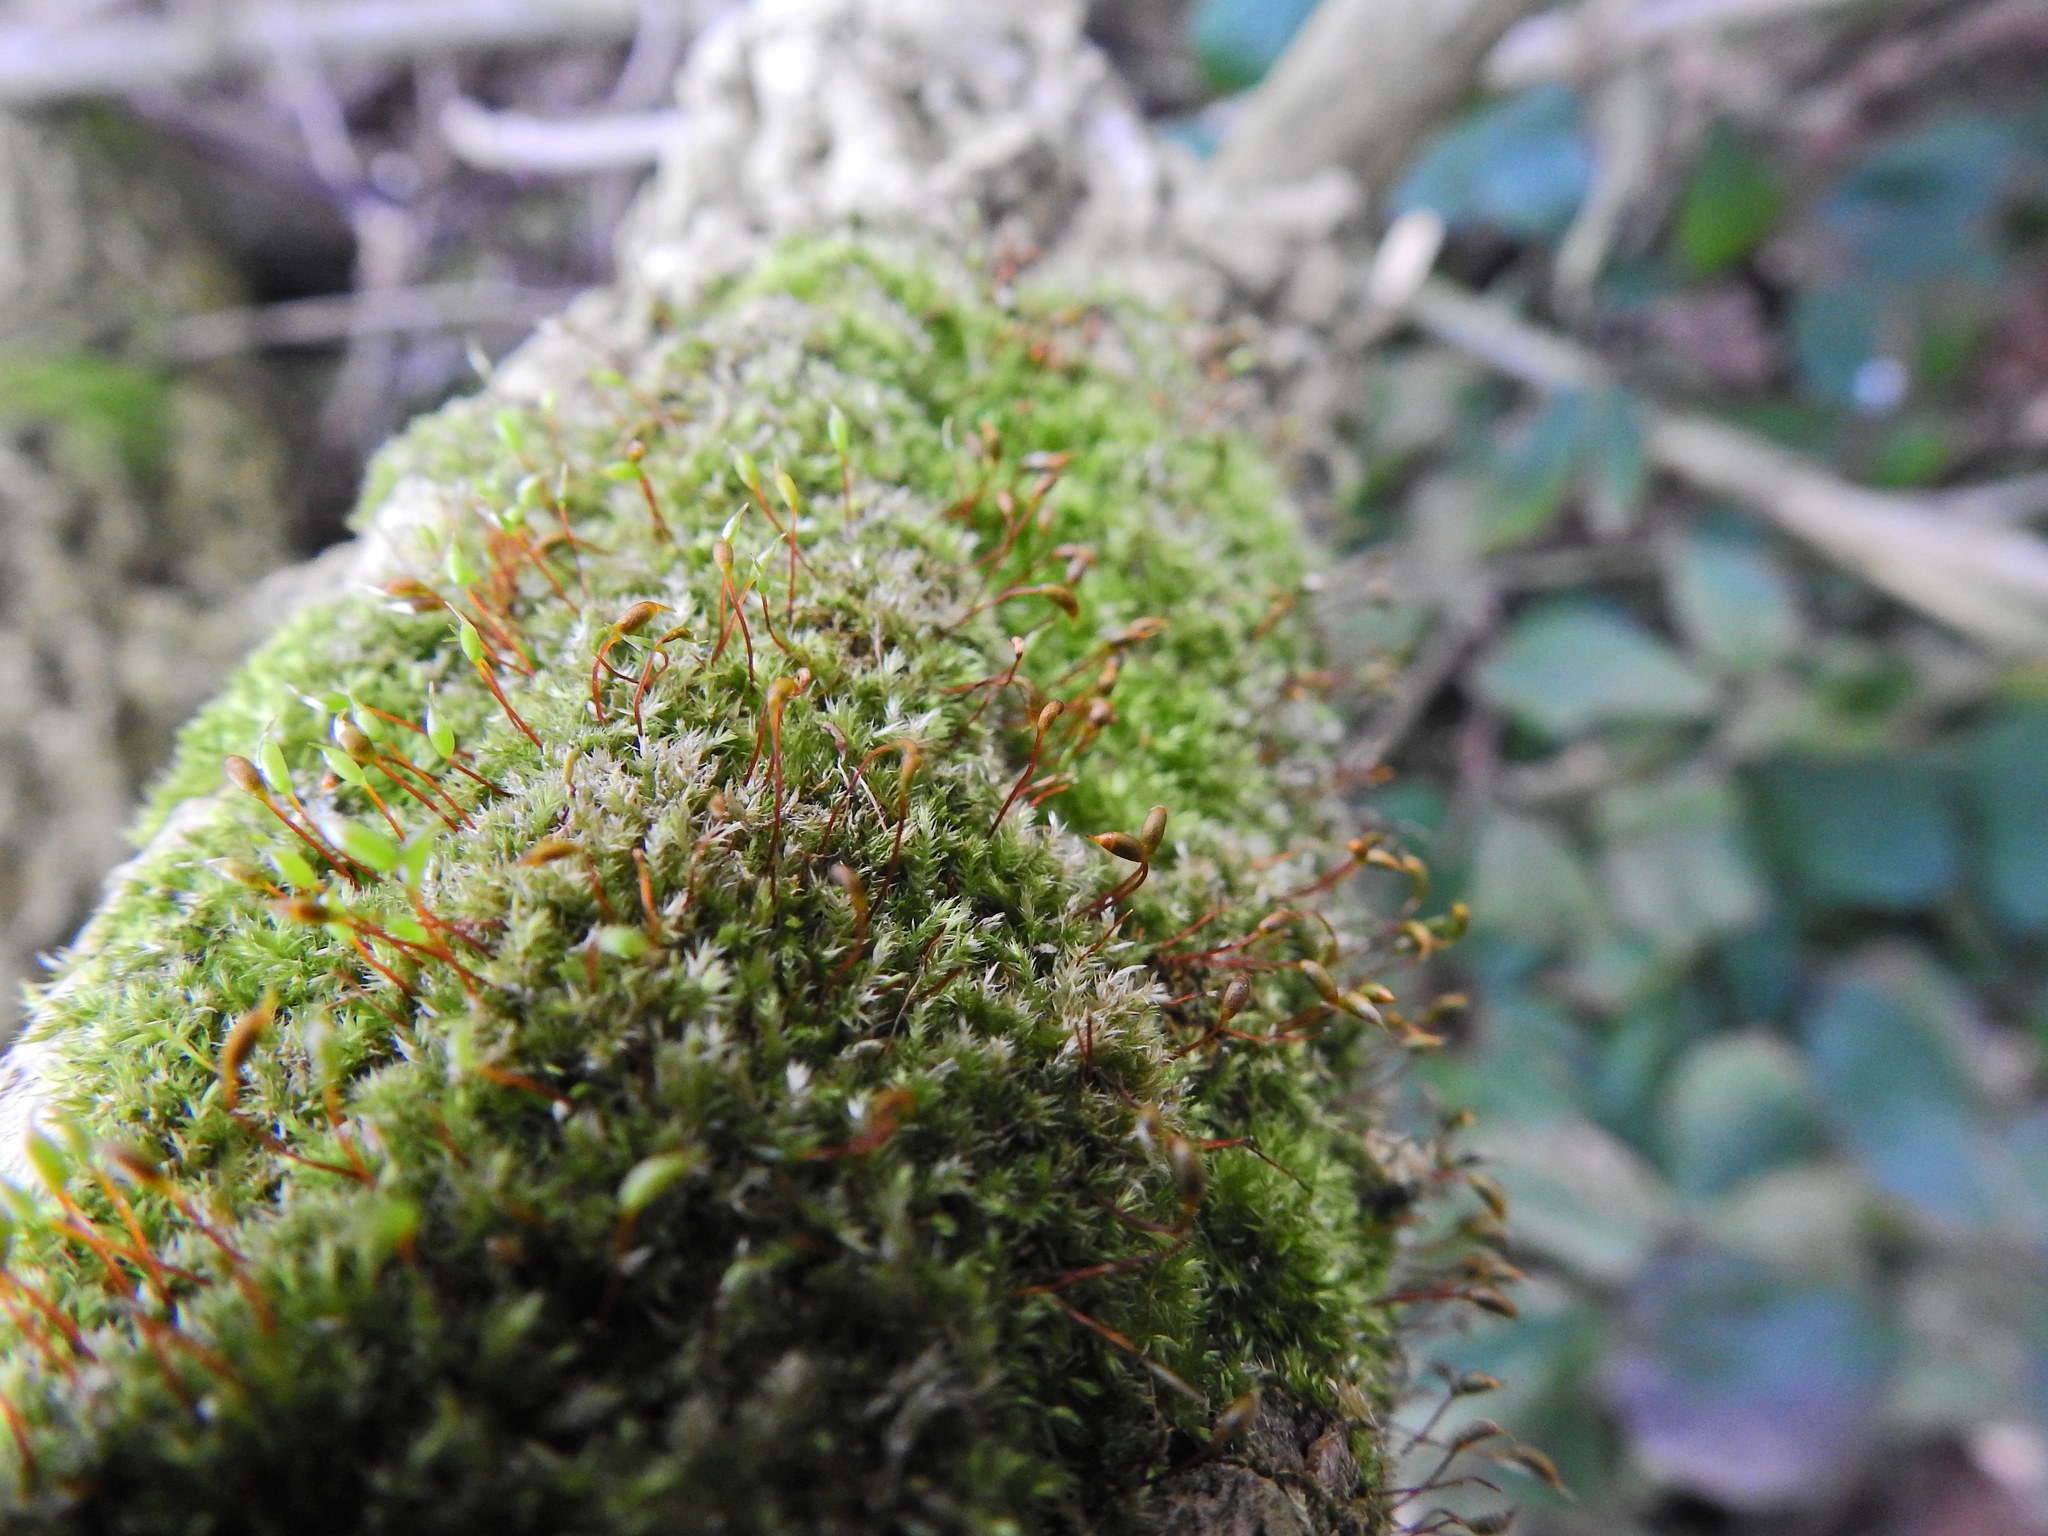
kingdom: Plantae
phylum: Bryophyta
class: Bryopsida
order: Hypnales
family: Brachytheciaceae
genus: Rhynchostegium
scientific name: Rhynchostegium confertum
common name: Clustered feather-moss
